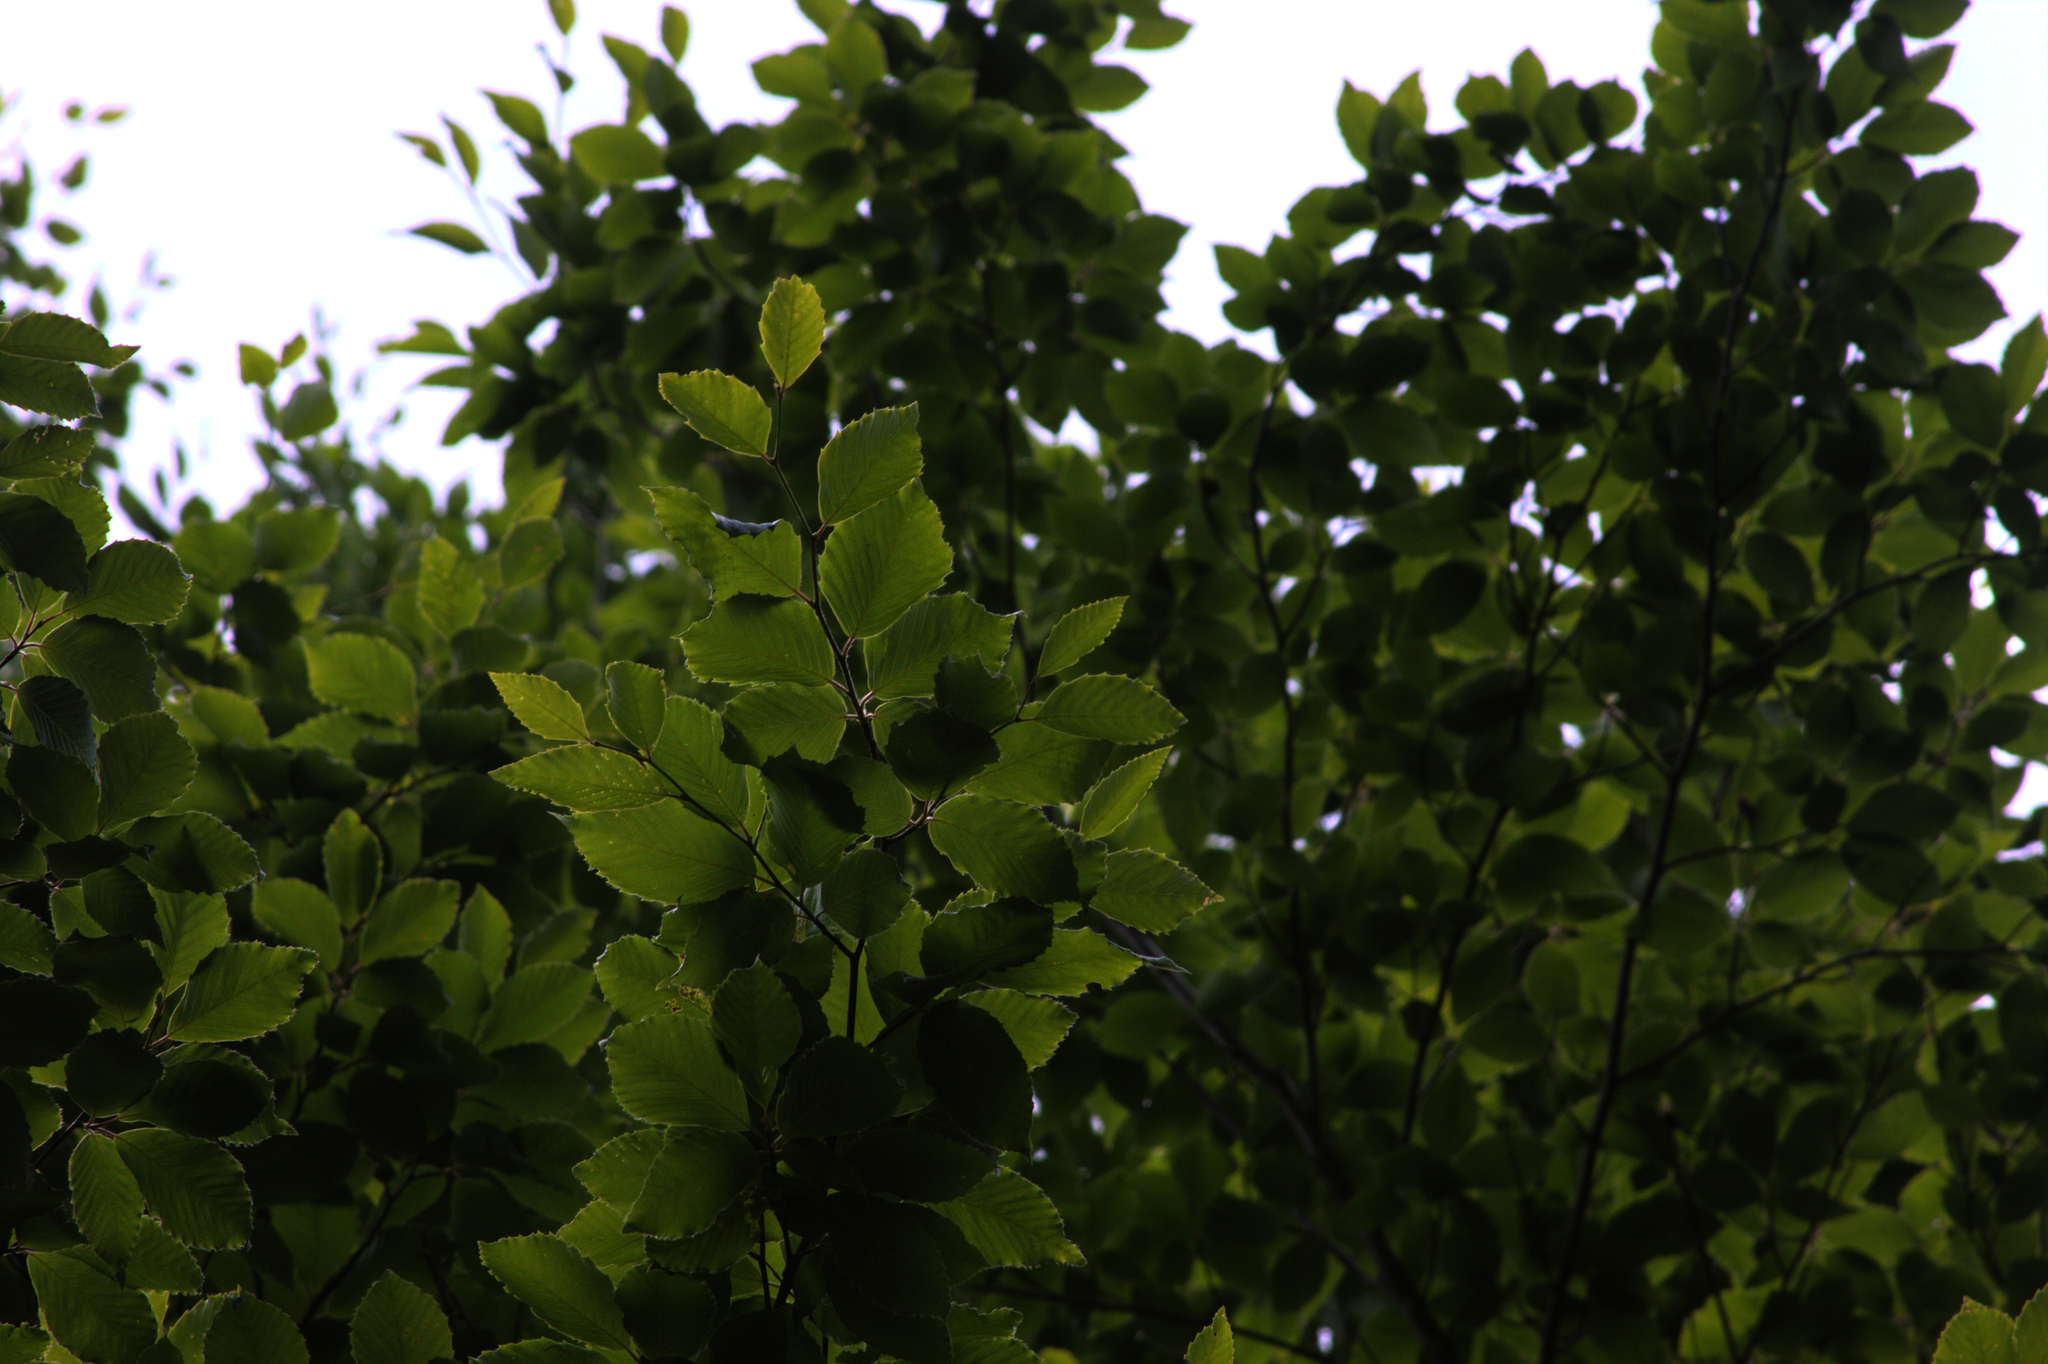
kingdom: Plantae
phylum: Tracheophyta
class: Magnoliopsida
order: Fagales
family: Fagaceae
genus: Fagus
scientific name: Fagus grandifolia
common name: American beech
